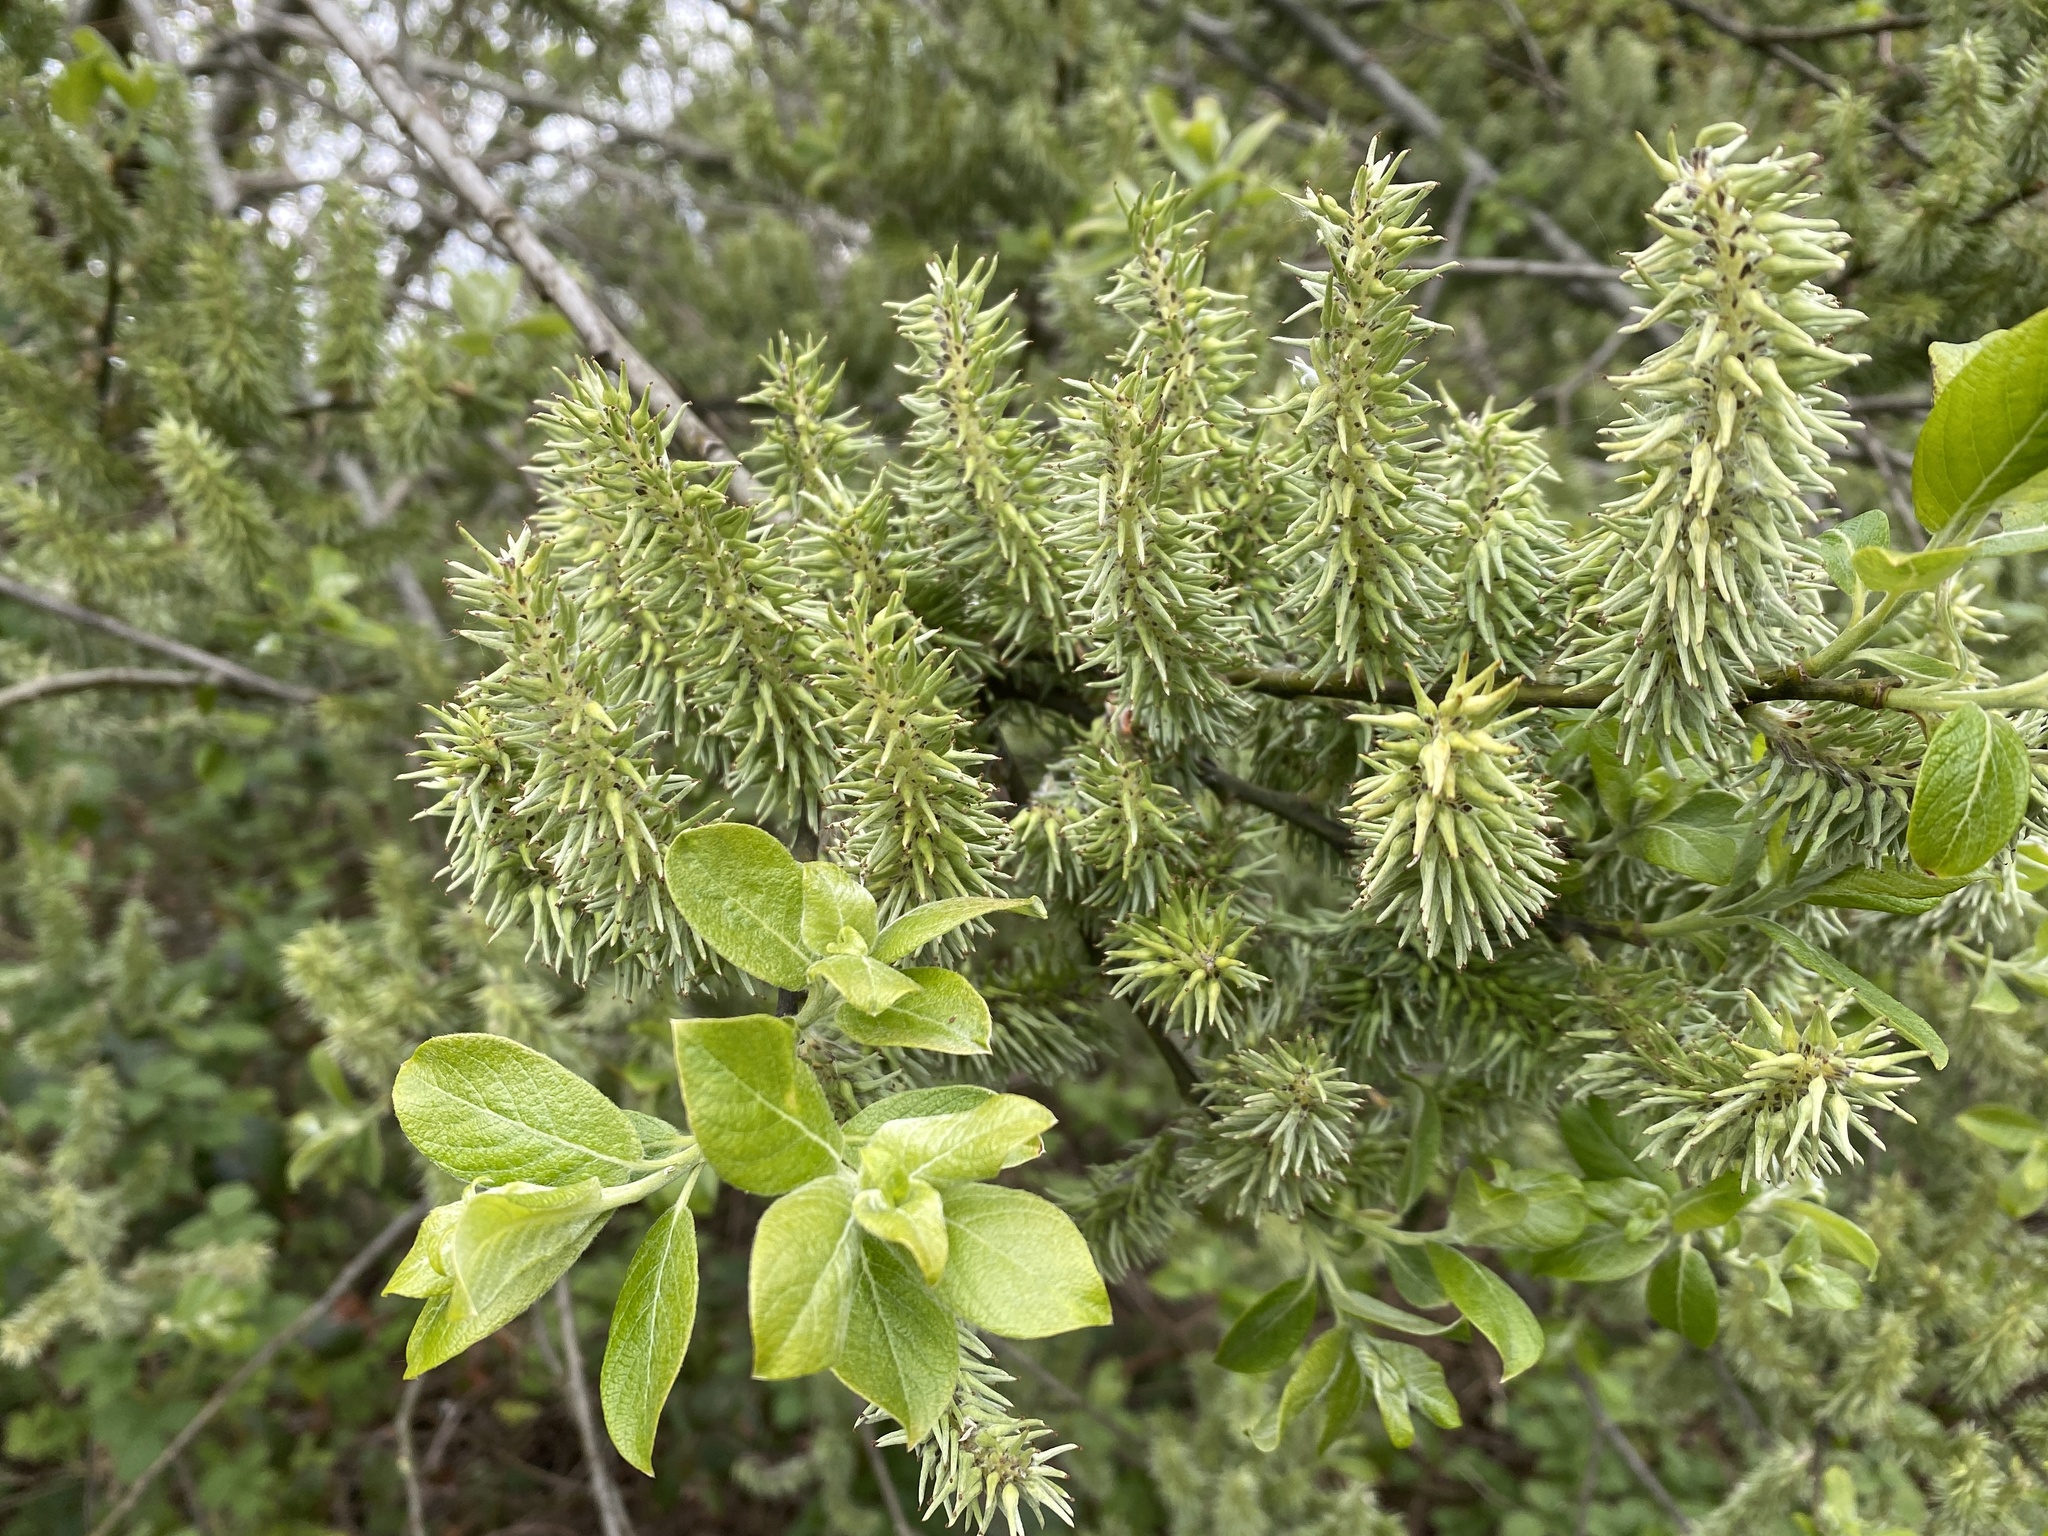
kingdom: Plantae
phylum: Tracheophyta
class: Magnoliopsida
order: Malpighiales
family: Salicaceae
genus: Salix
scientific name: Salix caprea
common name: Goat willow
